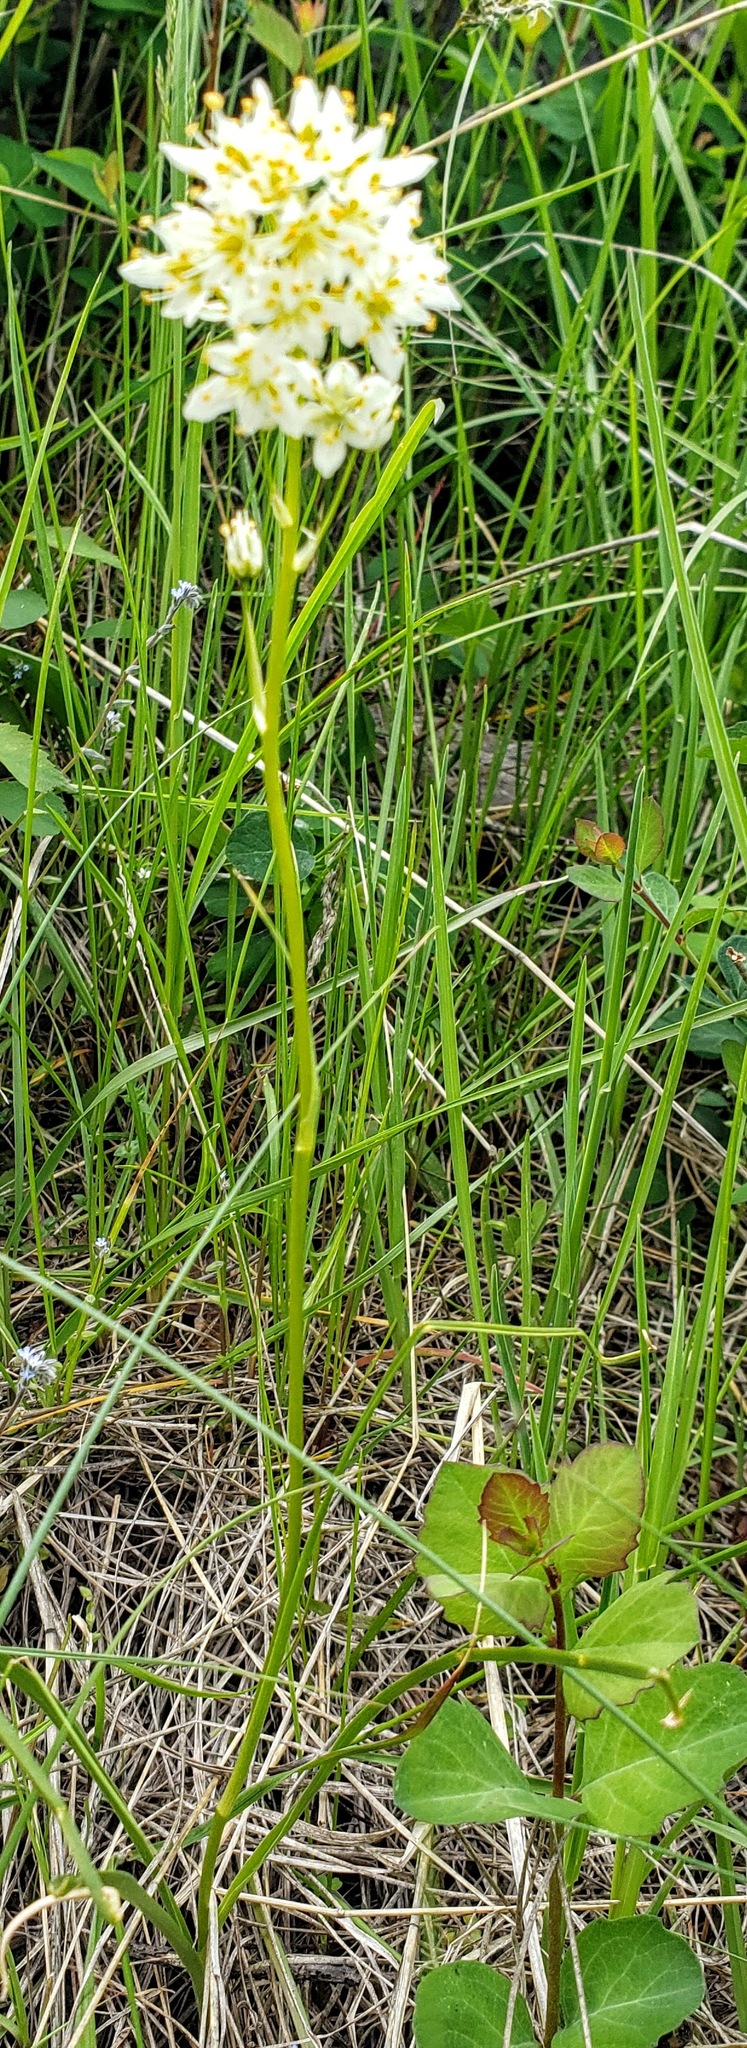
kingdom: Plantae
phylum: Tracheophyta
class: Liliopsida
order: Liliales
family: Melanthiaceae
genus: Toxicoscordion
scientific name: Toxicoscordion venenosum
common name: Meadow death camas
